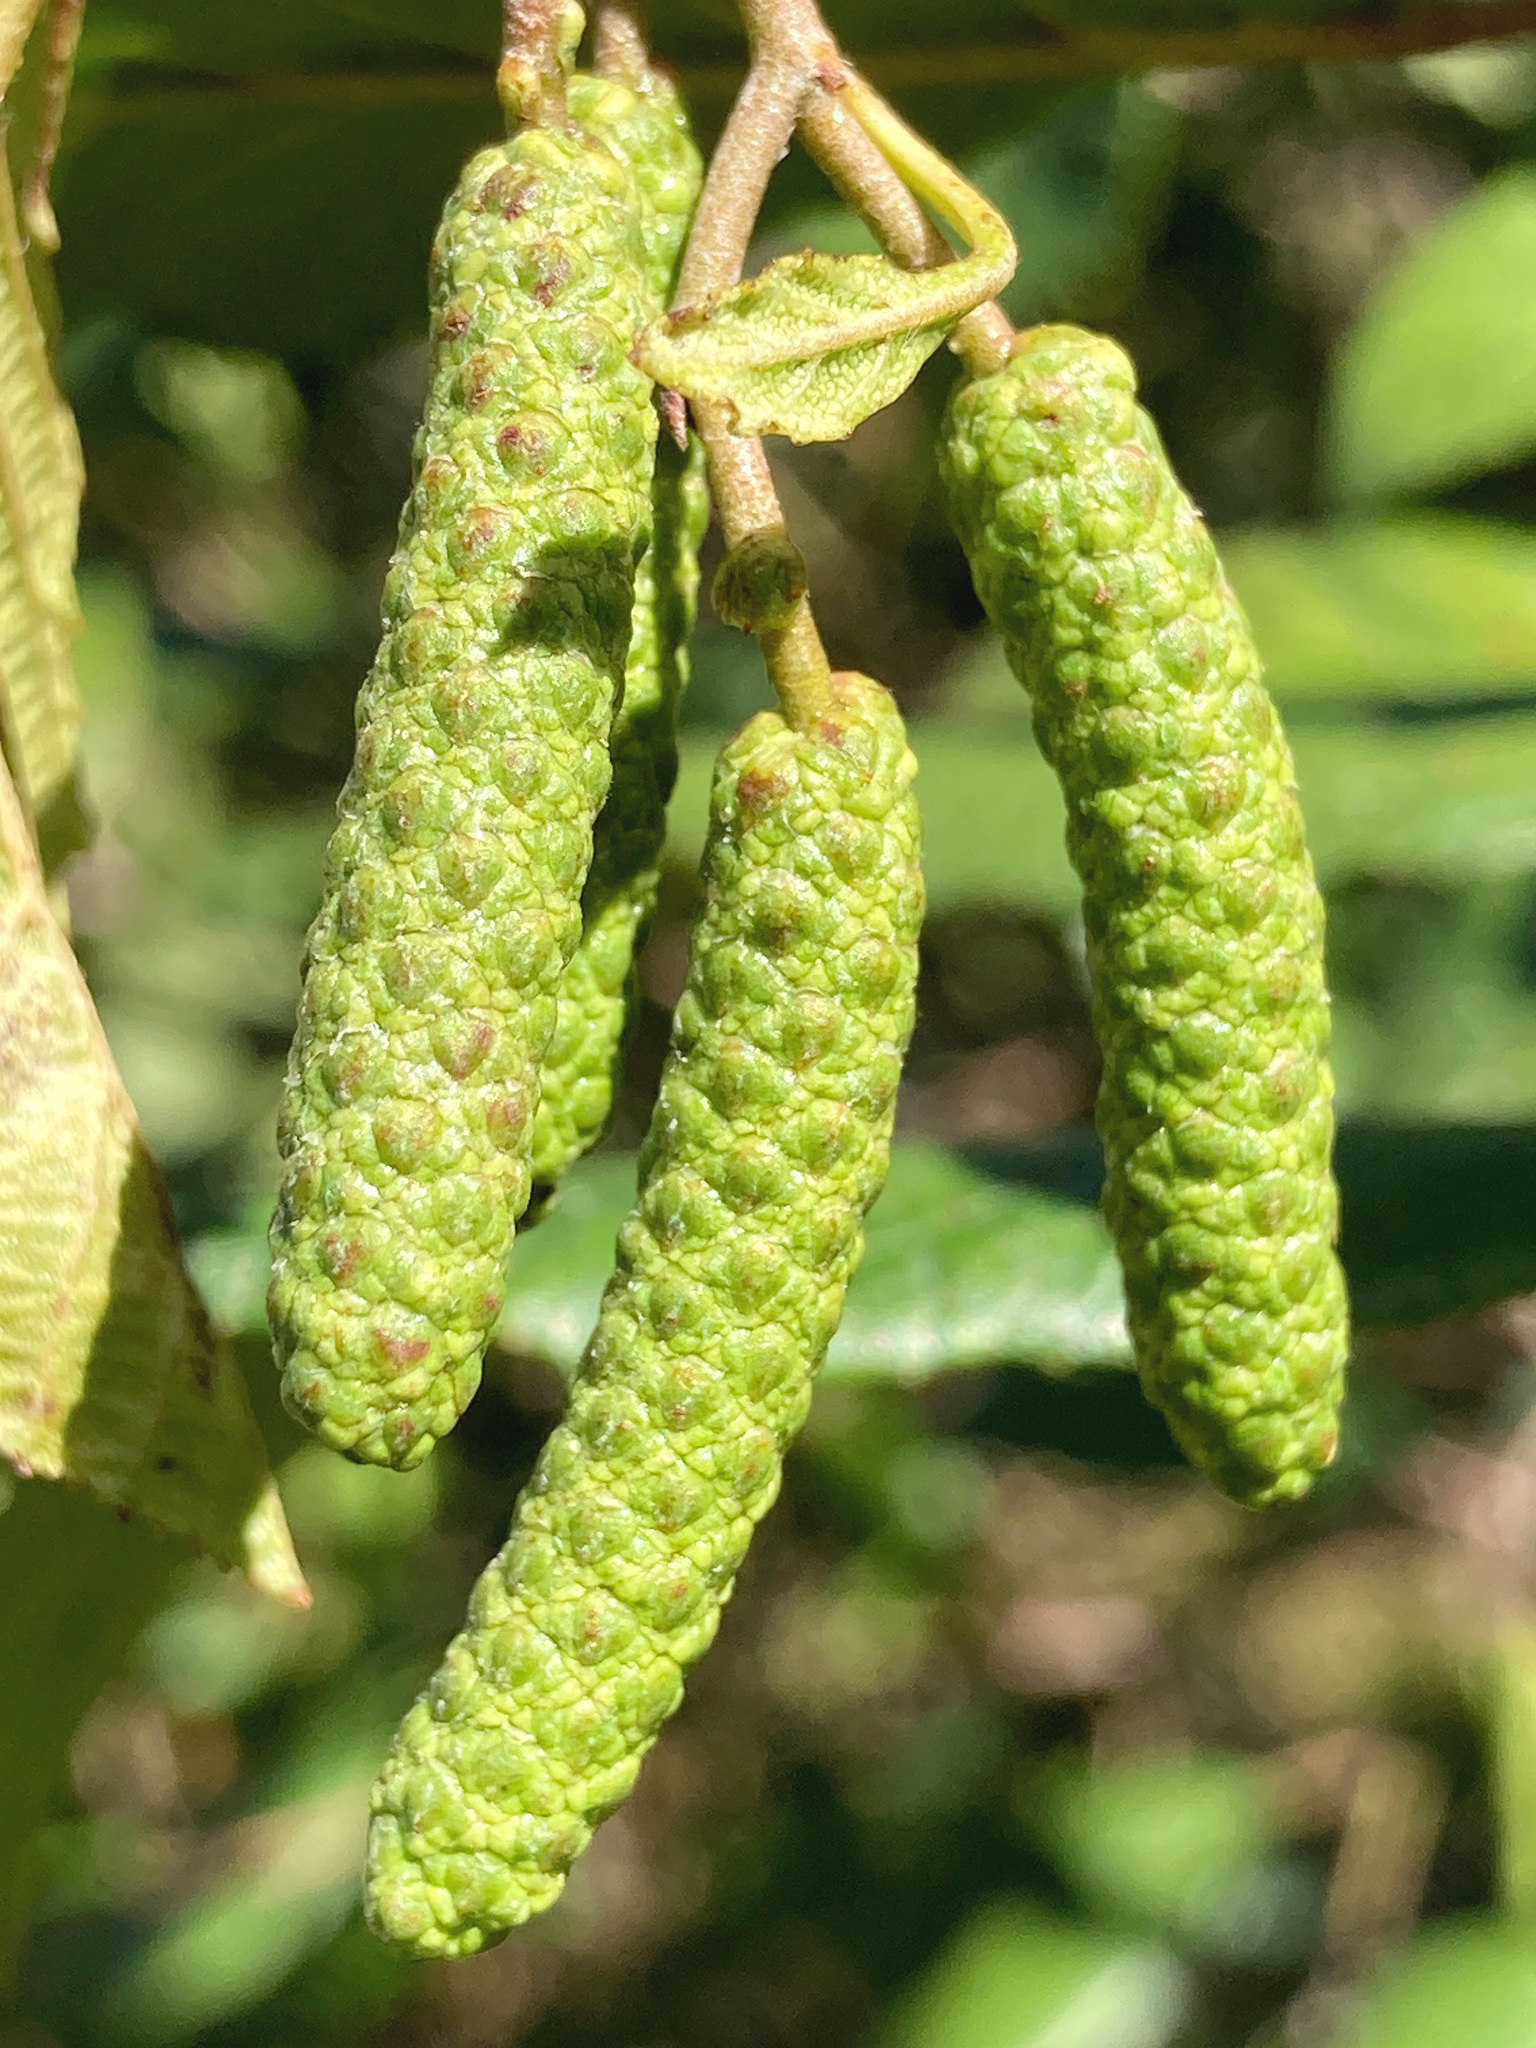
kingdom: Plantae
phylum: Tracheophyta
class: Magnoliopsida
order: Fagales
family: Betulaceae
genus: Alnus
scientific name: Alnus serrulata
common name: Hazel alder
